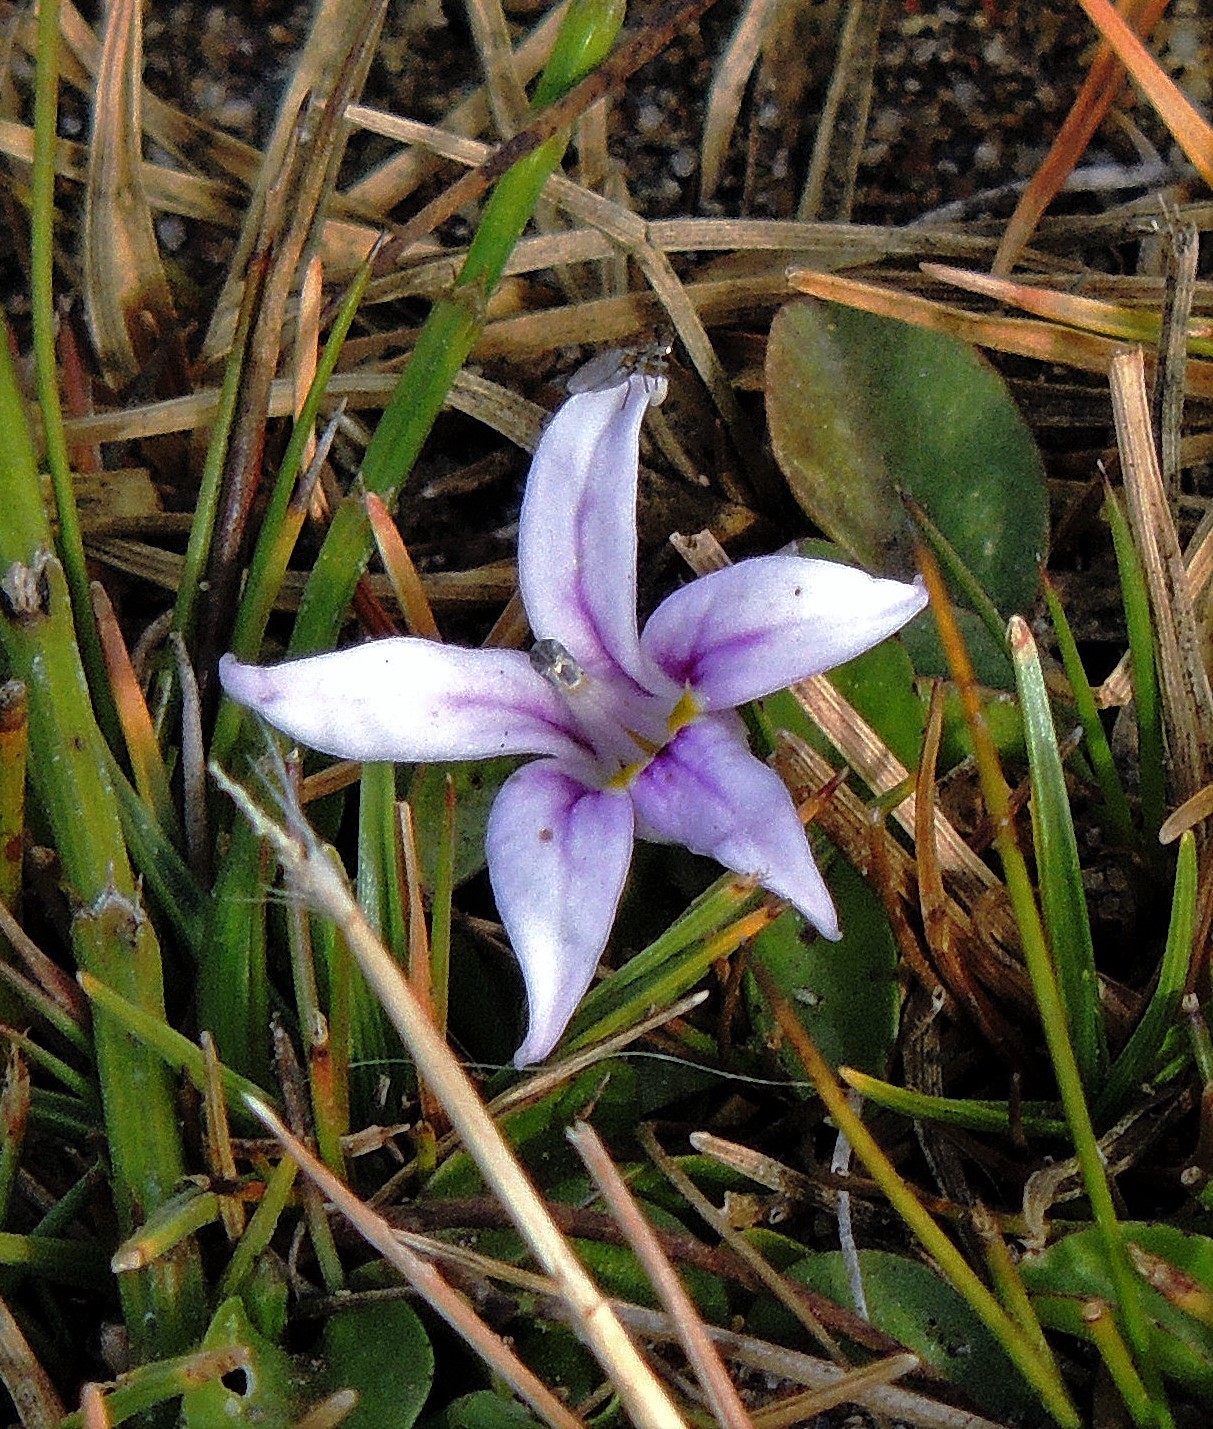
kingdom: Plantae
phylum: Tracheophyta
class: Magnoliopsida
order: Asterales
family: Campanulaceae
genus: Lobelia
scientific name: Lobelia oligophylla
